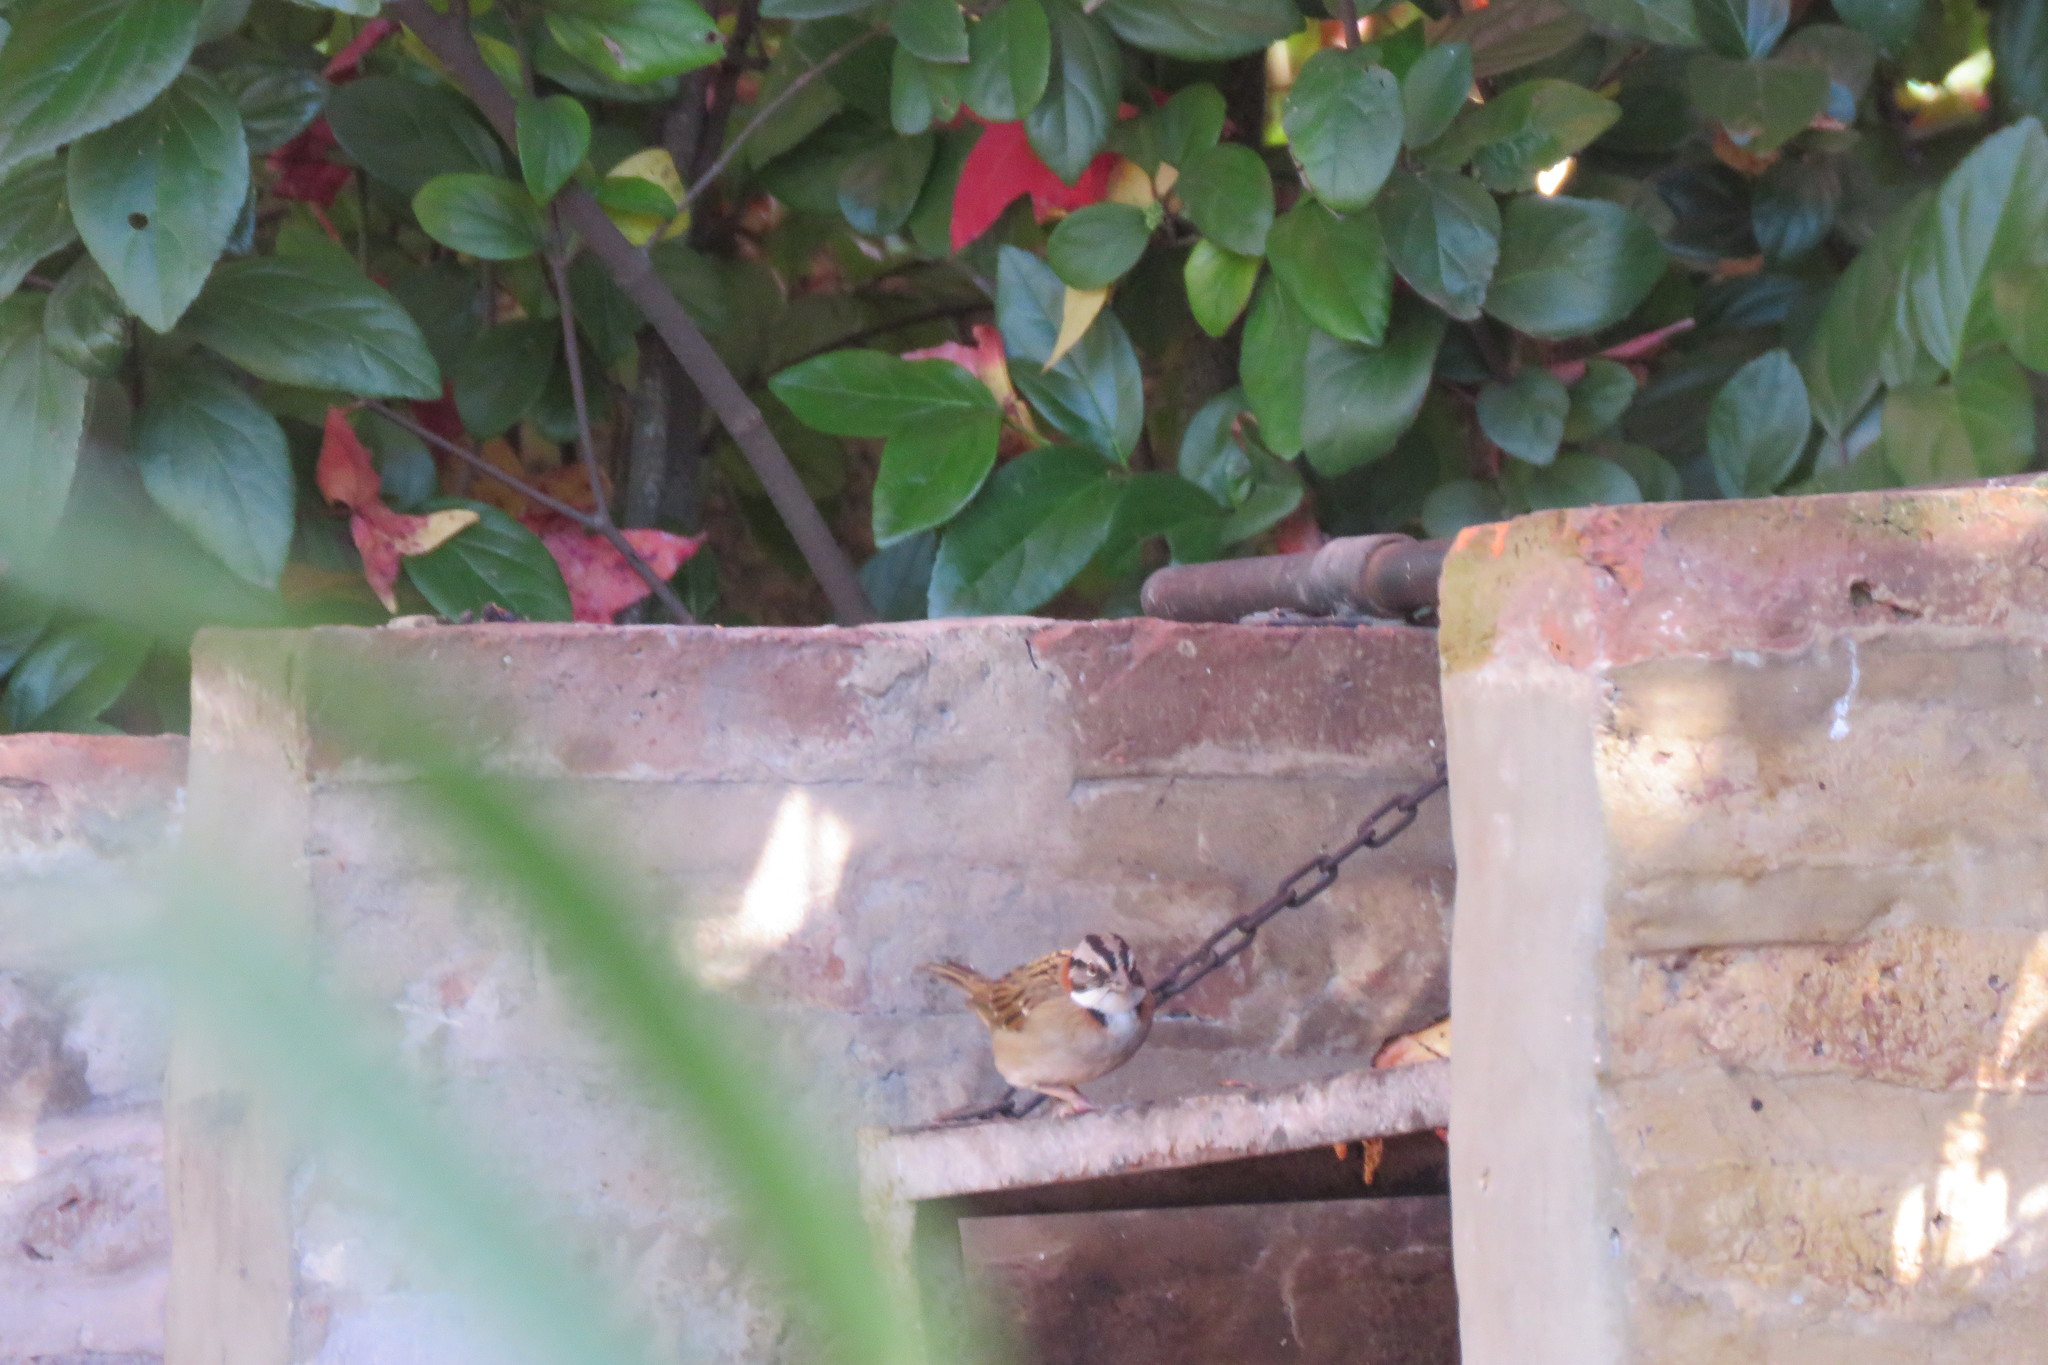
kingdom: Animalia
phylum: Chordata
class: Aves
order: Passeriformes
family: Passerellidae
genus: Zonotrichia
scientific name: Zonotrichia capensis
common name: Rufous-collared sparrow
